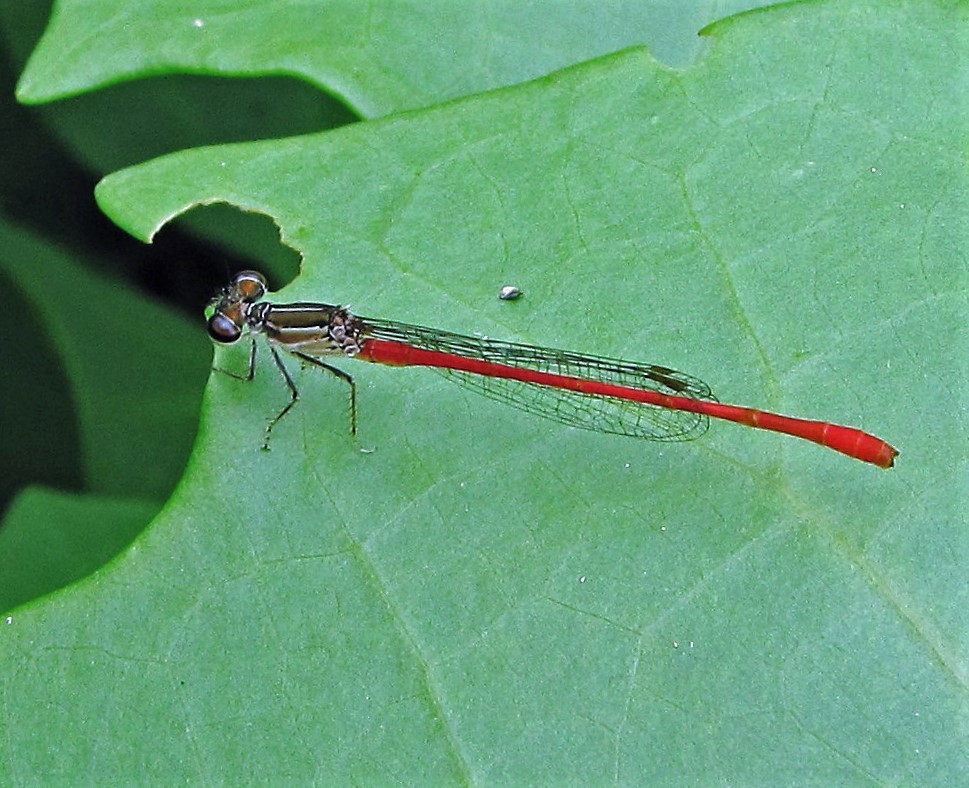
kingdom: Animalia
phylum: Arthropoda
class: Insecta
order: Odonata
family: Coenagrionidae
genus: Telebasis
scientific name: Telebasis willinki
